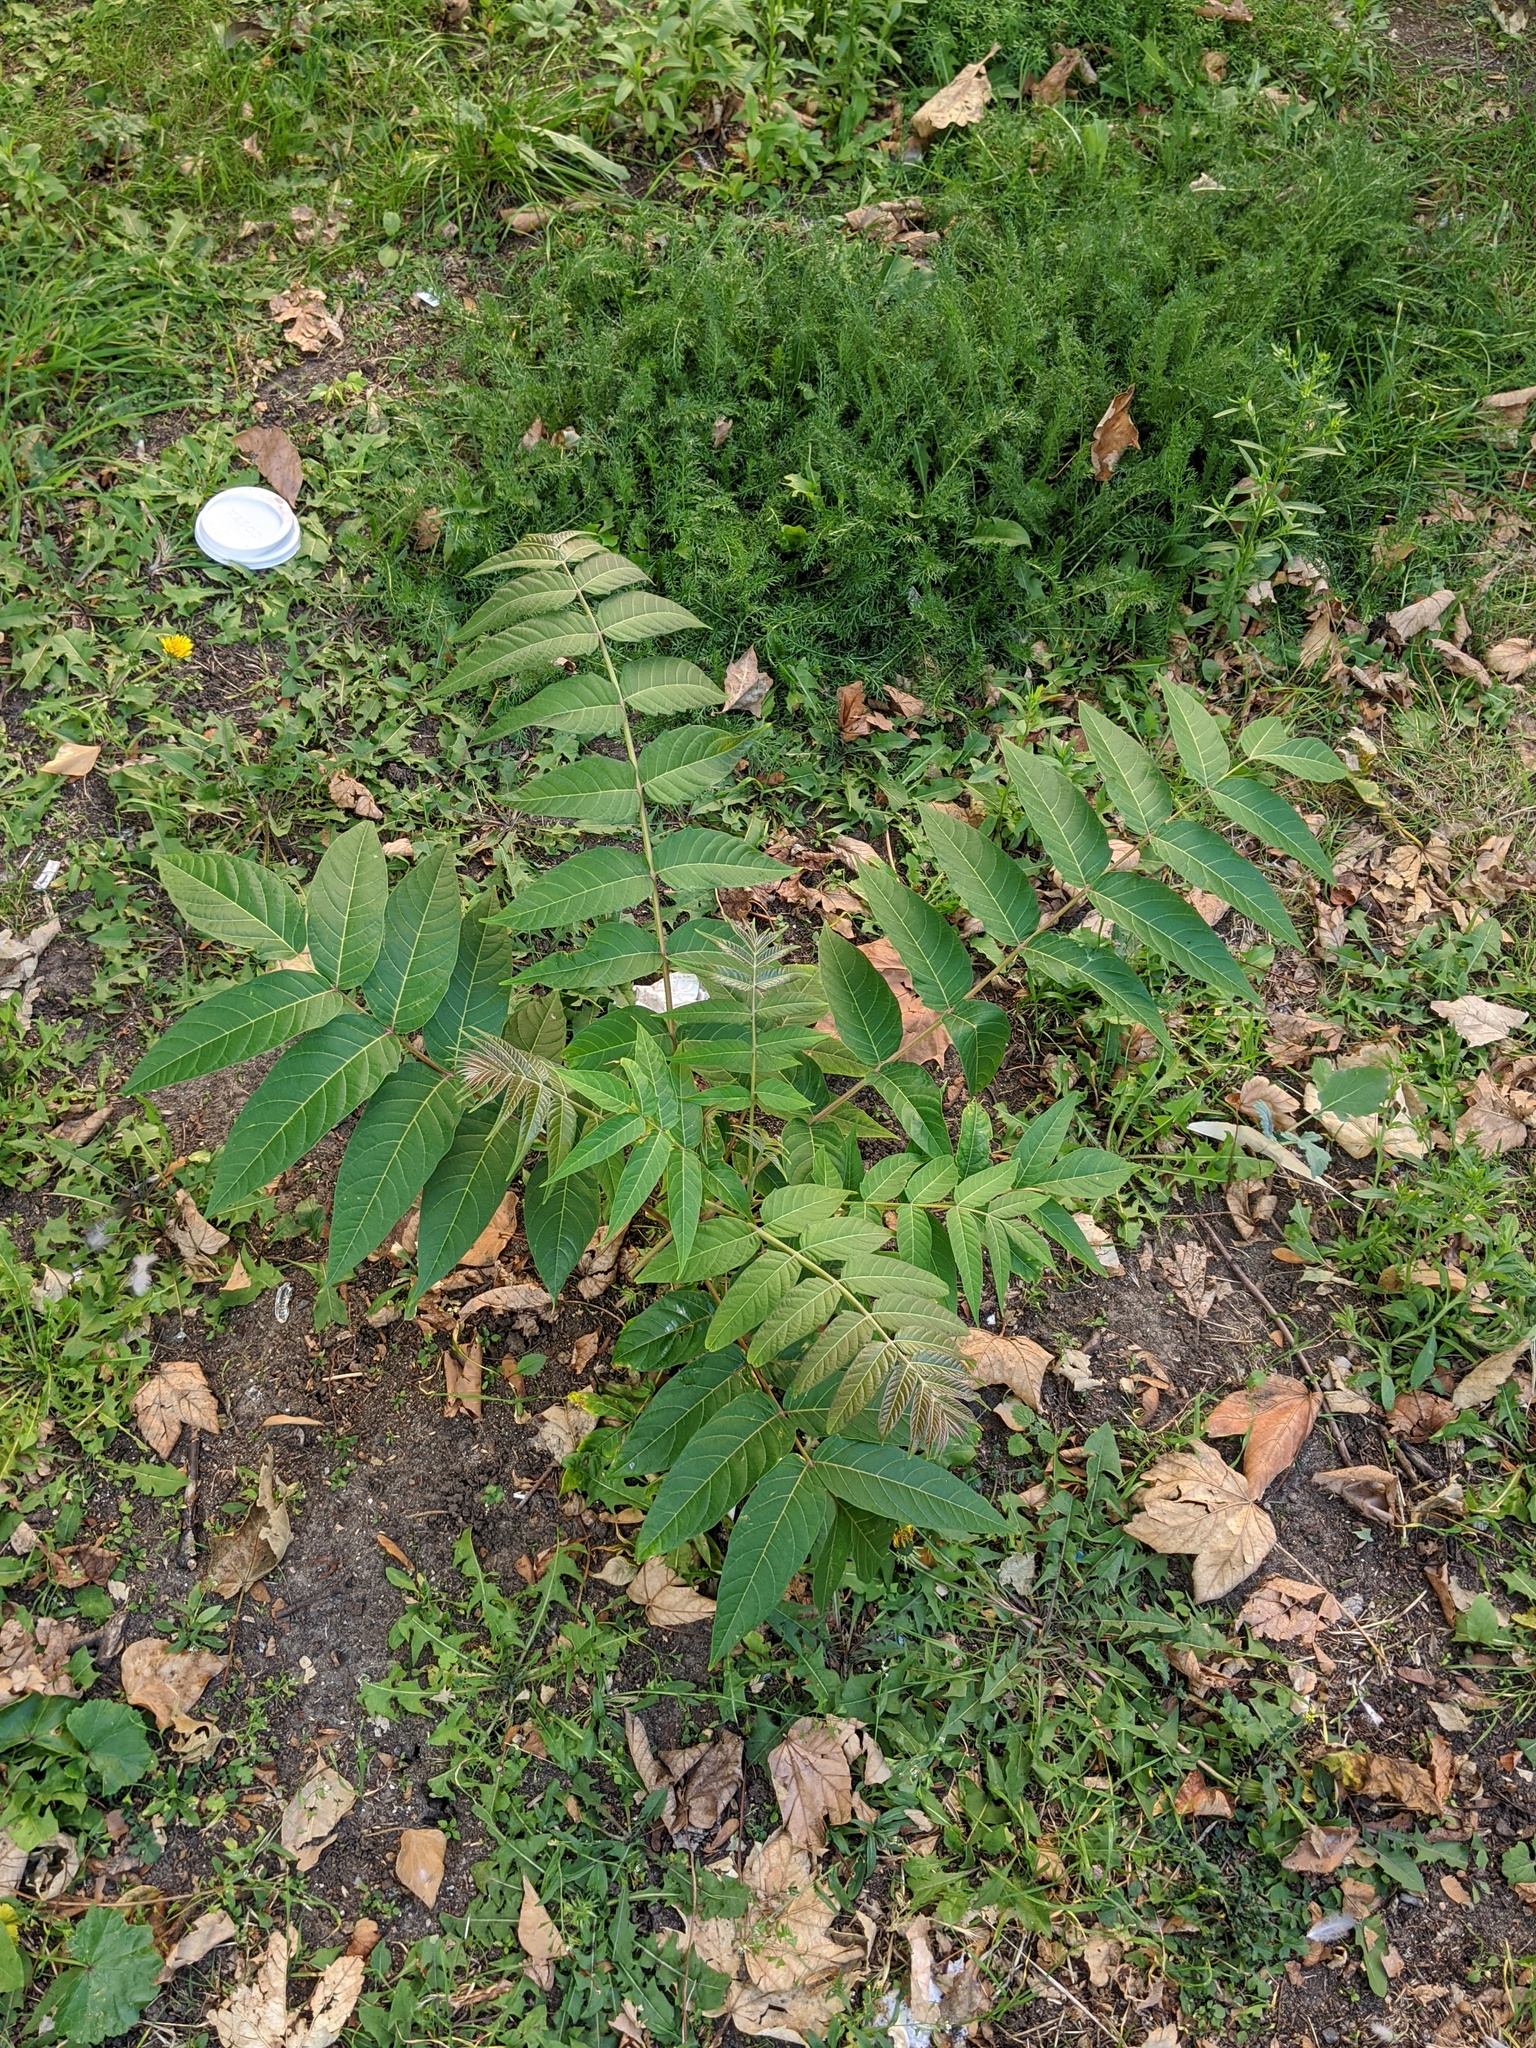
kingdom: Plantae
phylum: Tracheophyta
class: Magnoliopsida
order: Sapindales
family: Simaroubaceae
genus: Ailanthus
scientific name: Ailanthus altissima
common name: Tree-of-heaven
